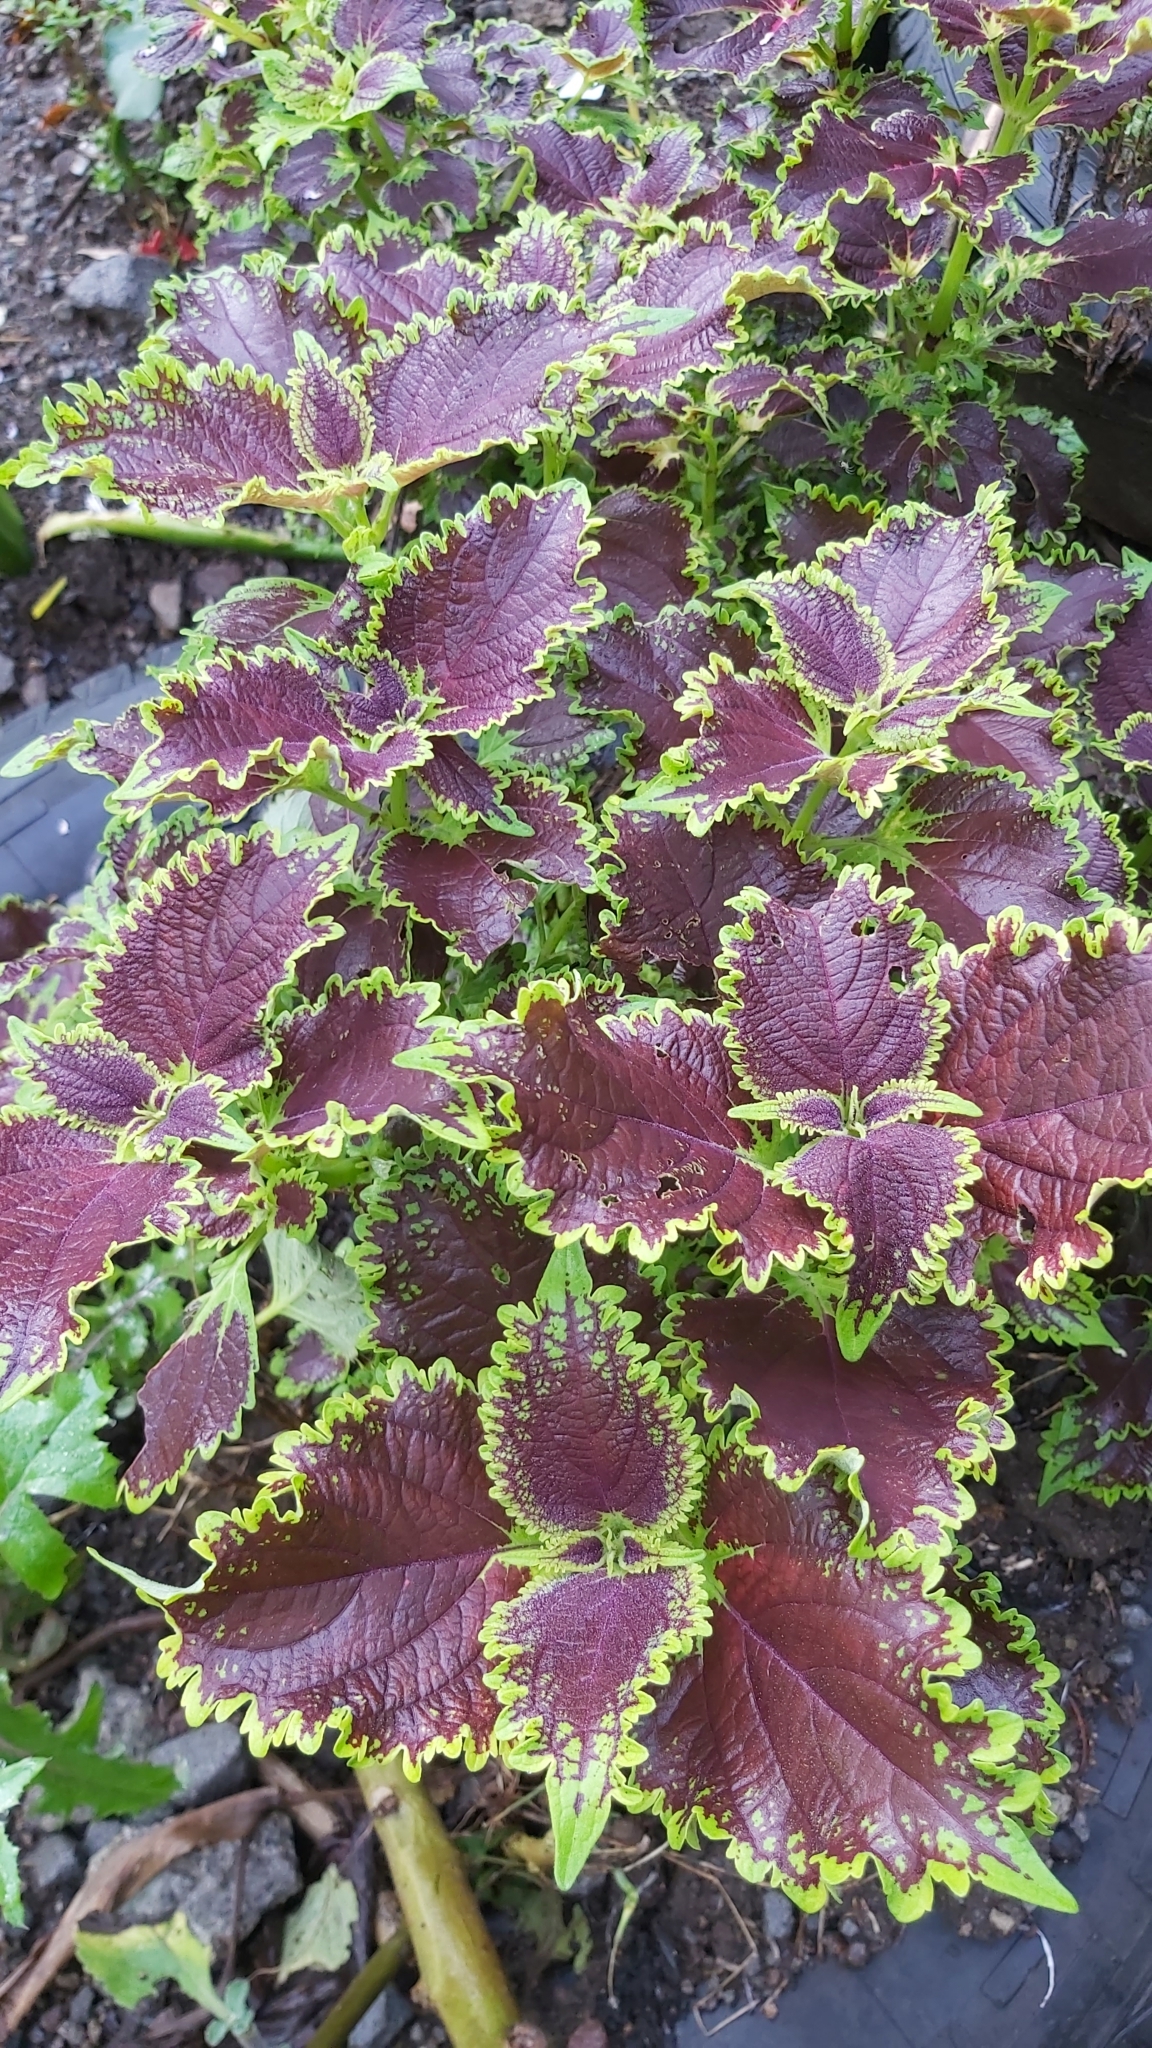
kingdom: Plantae
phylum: Tracheophyta
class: Magnoliopsida
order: Lamiales
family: Lamiaceae
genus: Coleus
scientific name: Coleus scutellarioides
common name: Coleus
